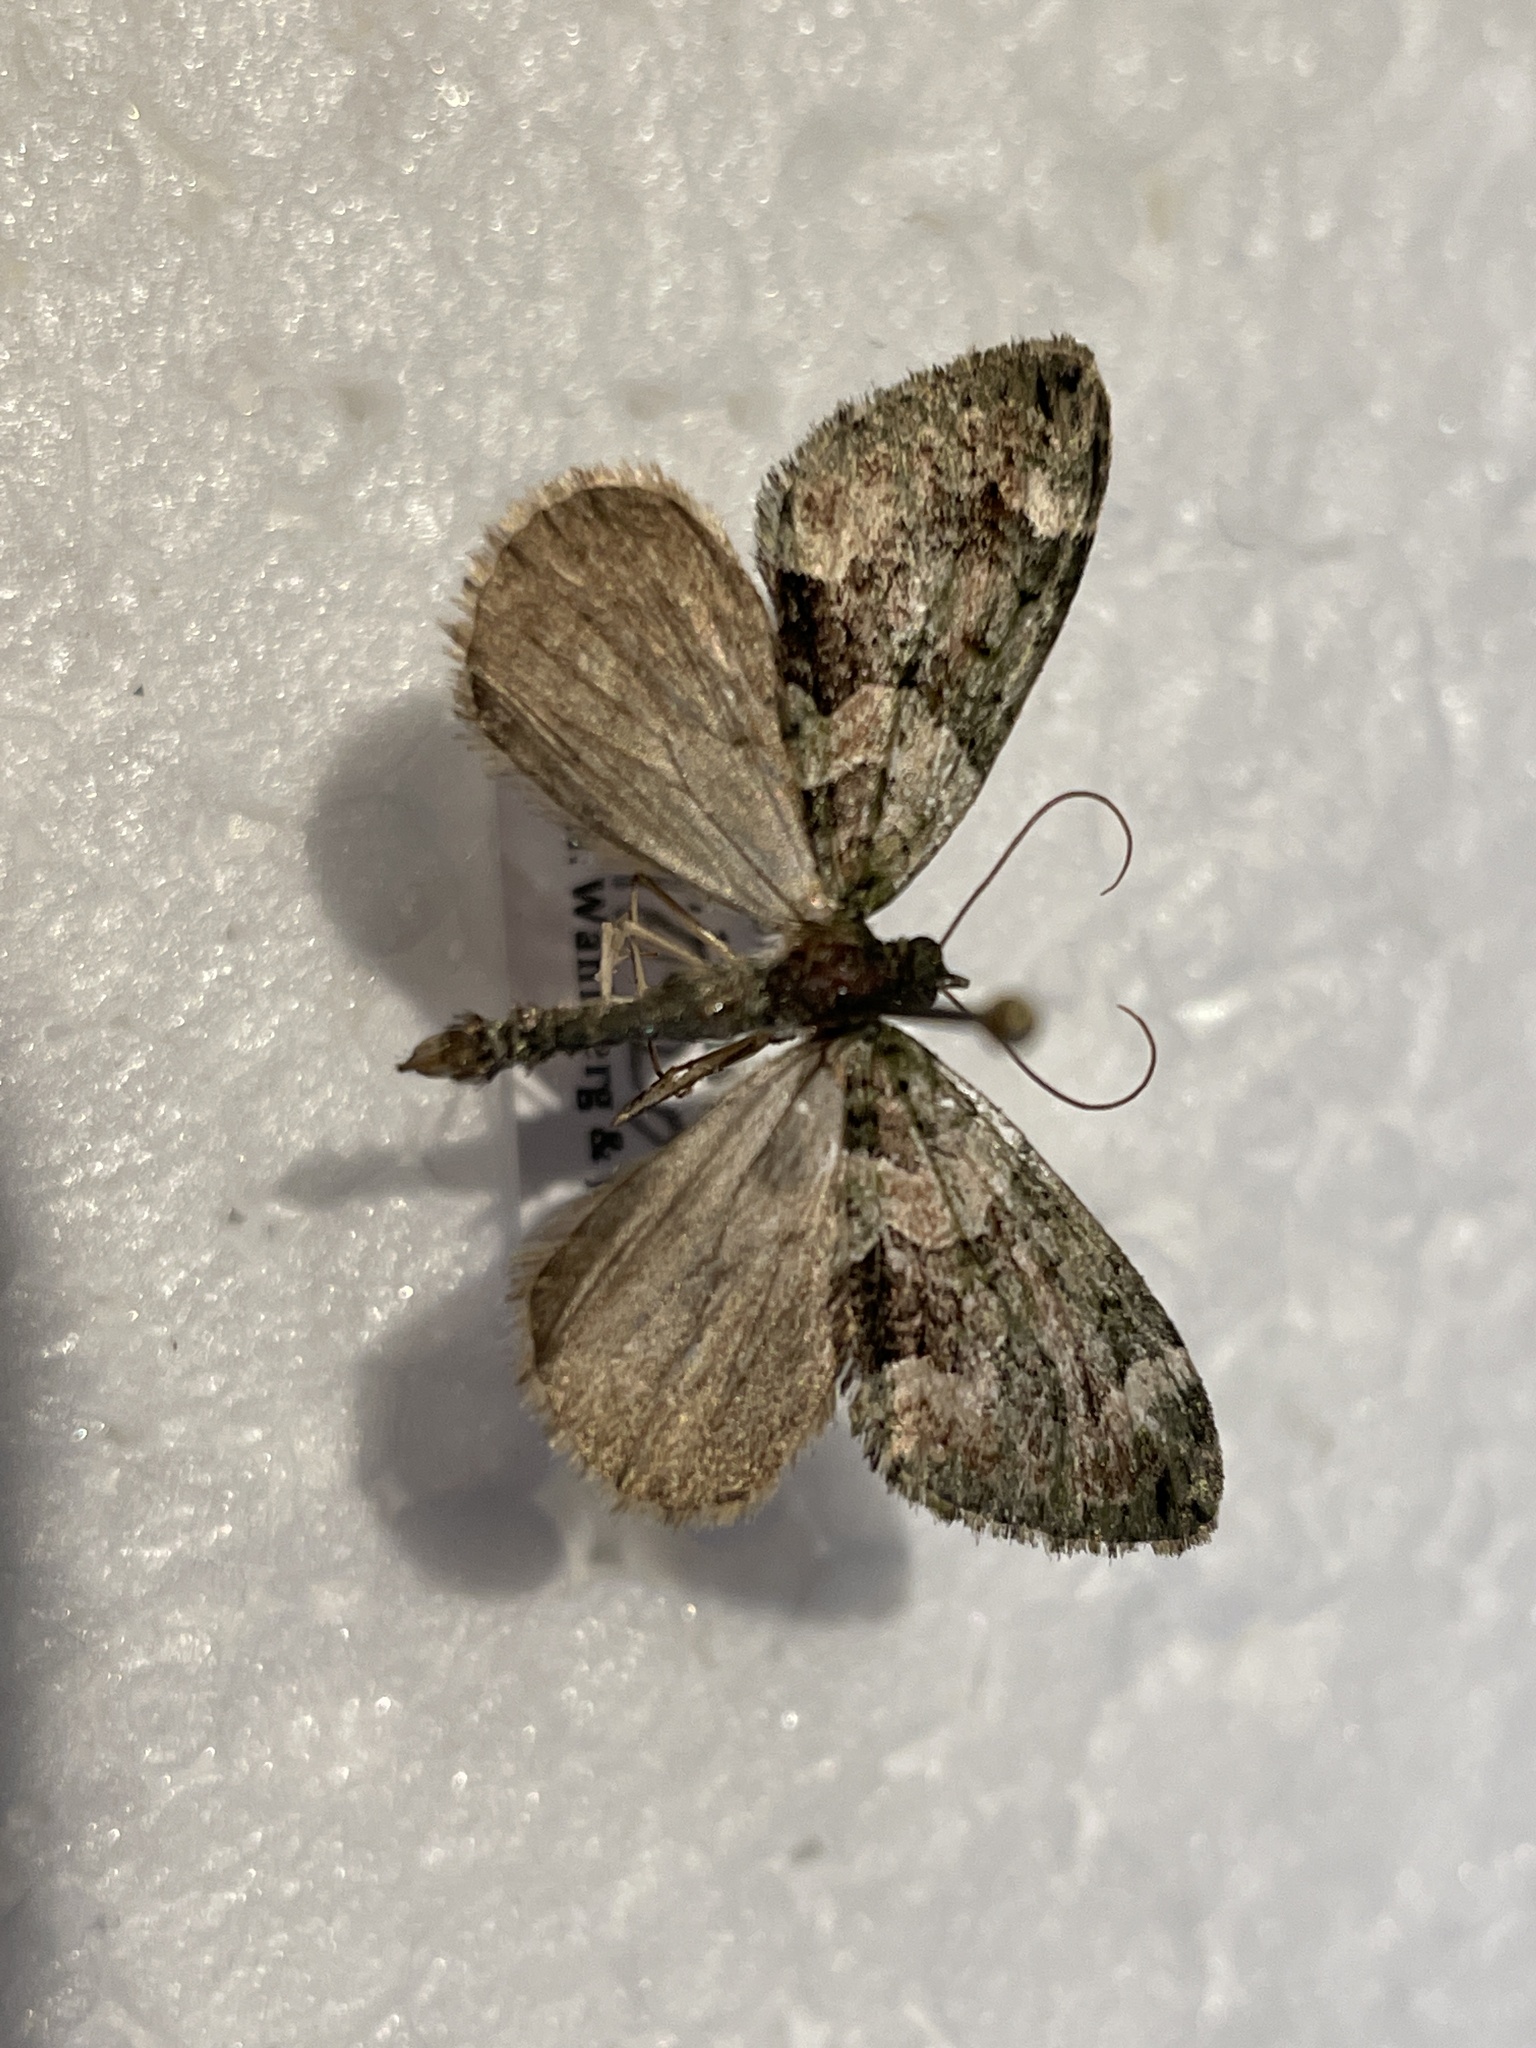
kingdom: Animalia
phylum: Arthropoda
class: Insecta
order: Lepidoptera
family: Geometridae
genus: Chloroclysta
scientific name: Chloroclysta siterata
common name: Red-green carpet
